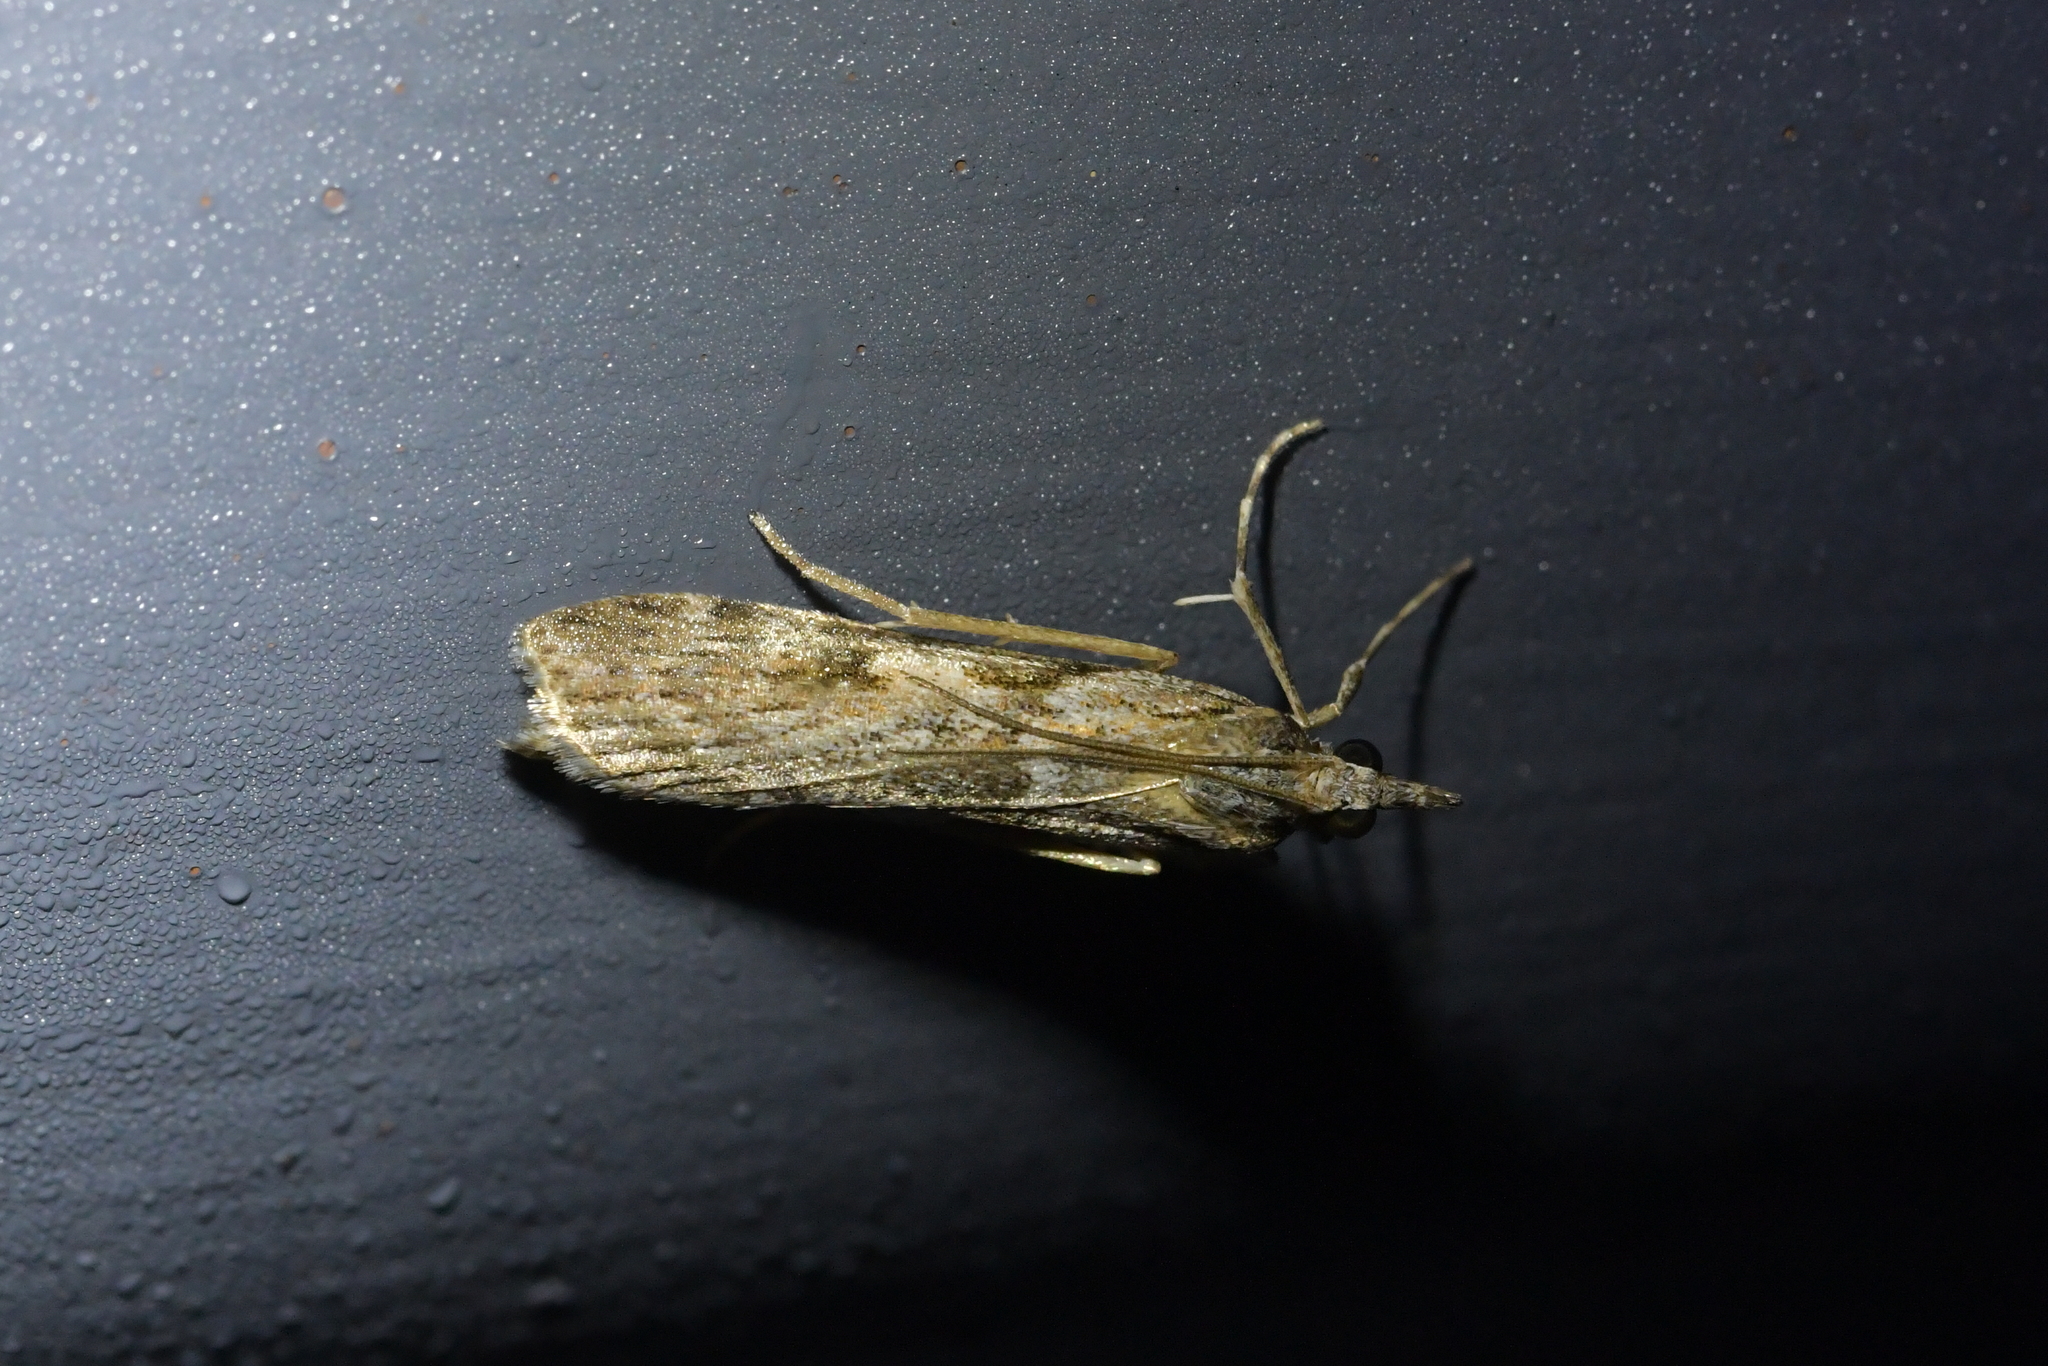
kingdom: Animalia
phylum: Arthropoda
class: Insecta
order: Lepidoptera
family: Crambidae
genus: Scoparia
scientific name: Scoparia halopis
